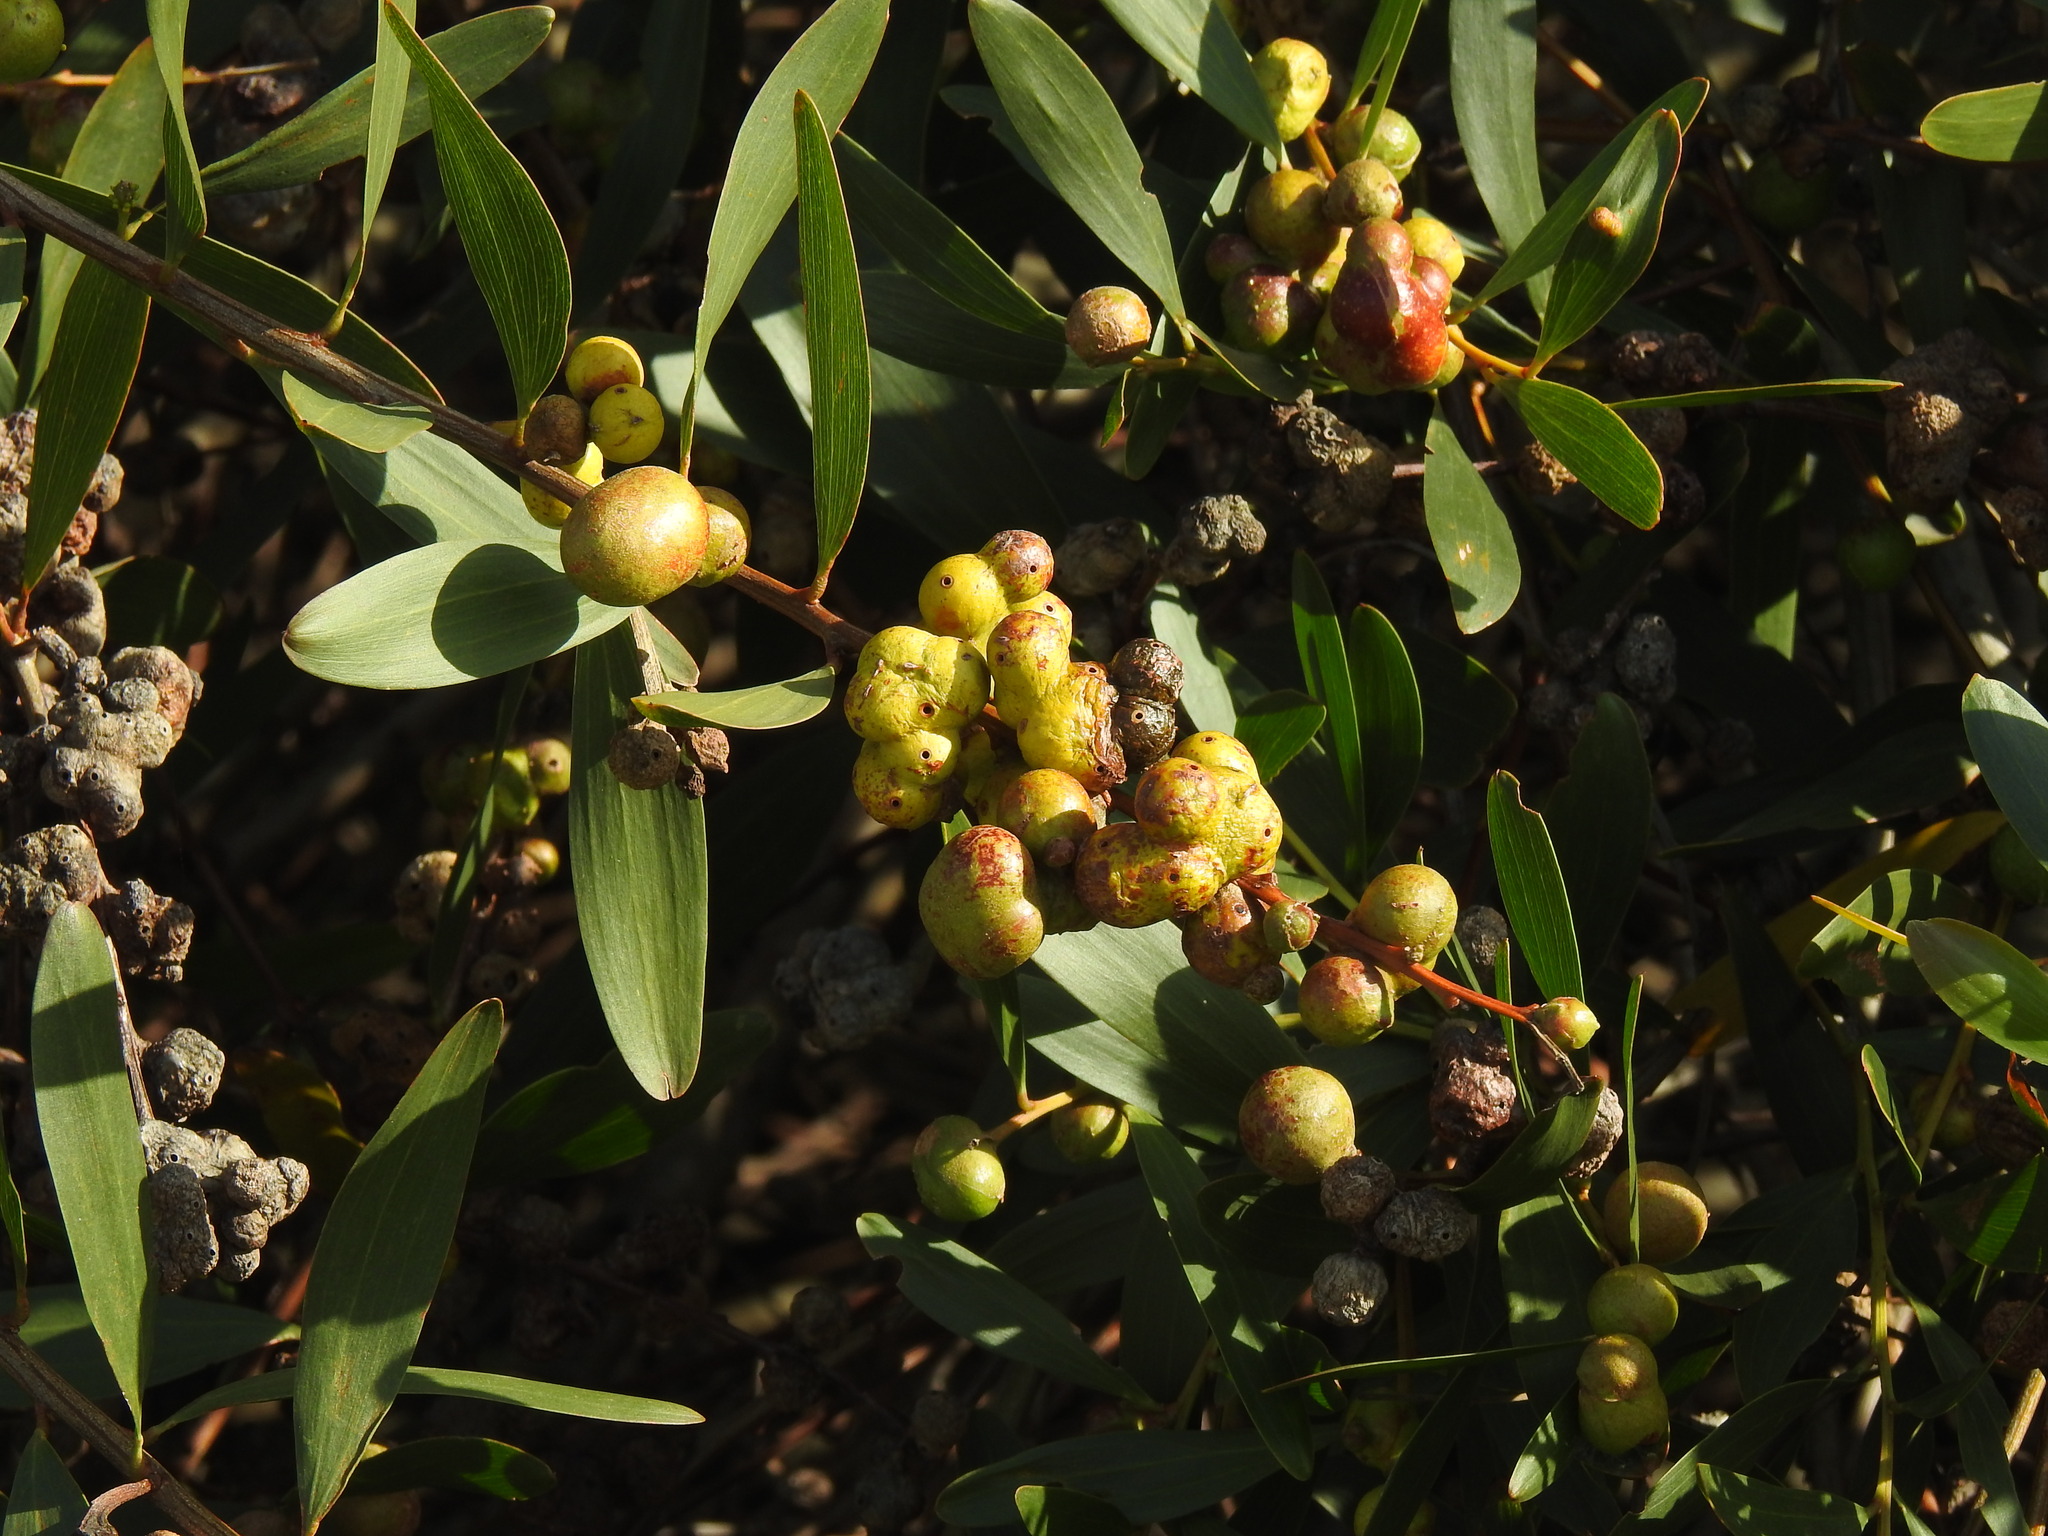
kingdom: Plantae
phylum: Tracheophyta
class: Magnoliopsida
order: Fabales
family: Fabaceae
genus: Acacia
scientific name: Acacia longifolia
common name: Sydney golden wattle
